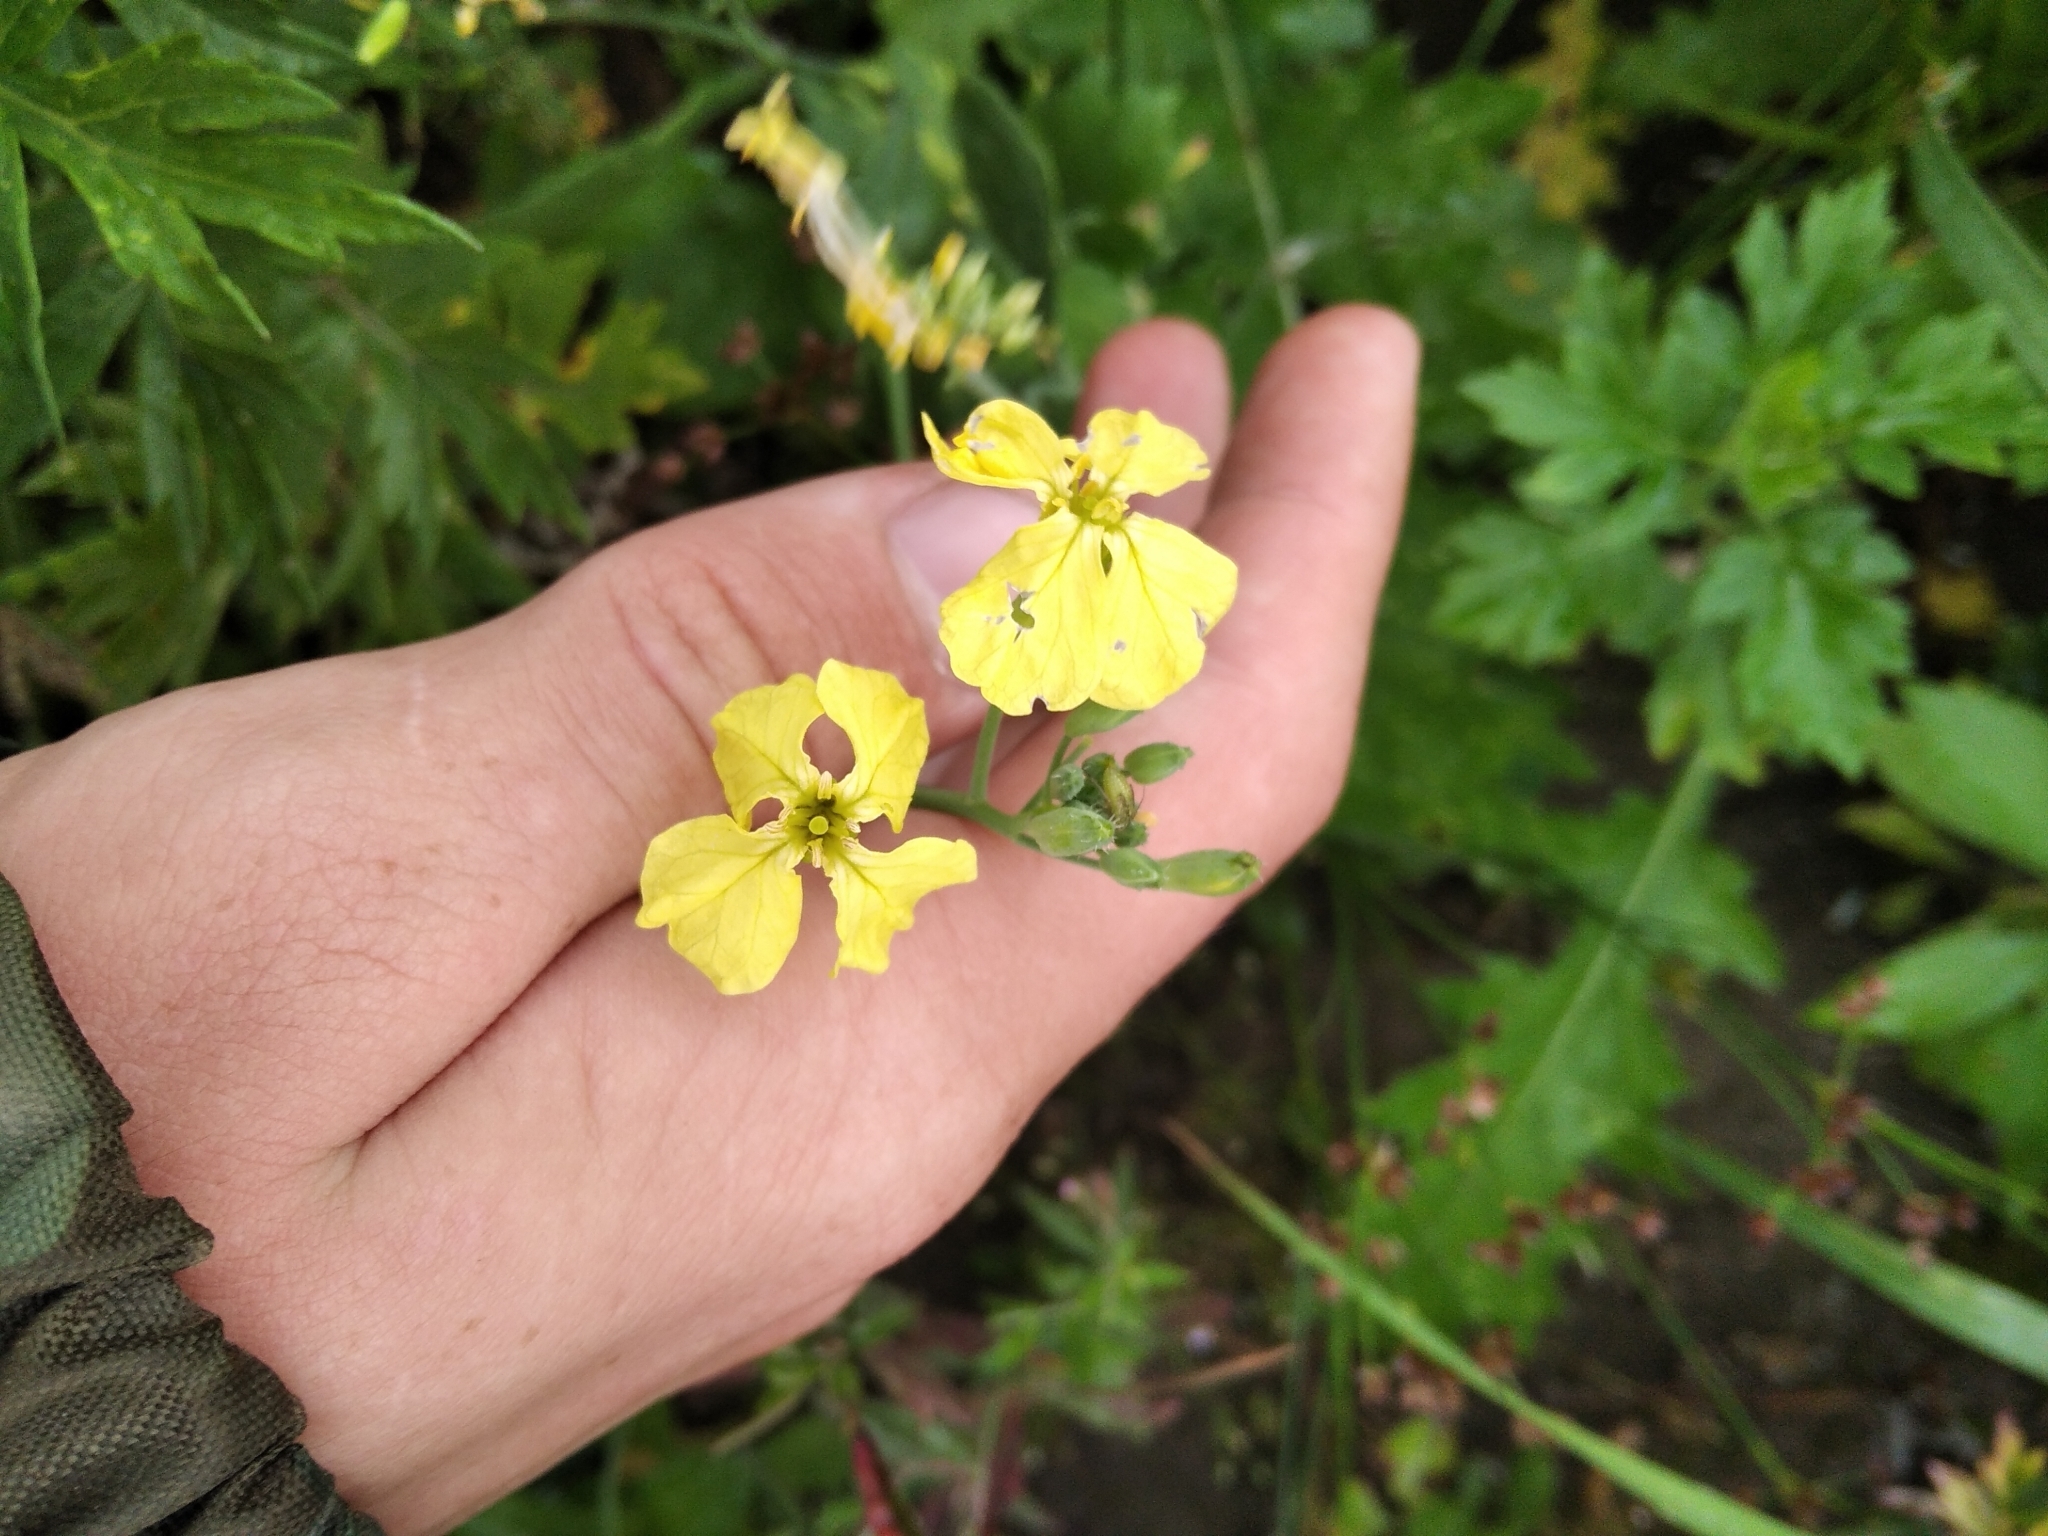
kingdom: Plantae
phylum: Tracheophyta
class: Magnoliopsida
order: Brassicales
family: Brassicaceae
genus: Raphanus
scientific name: Raphanus raphanistrum
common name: Wild radish
